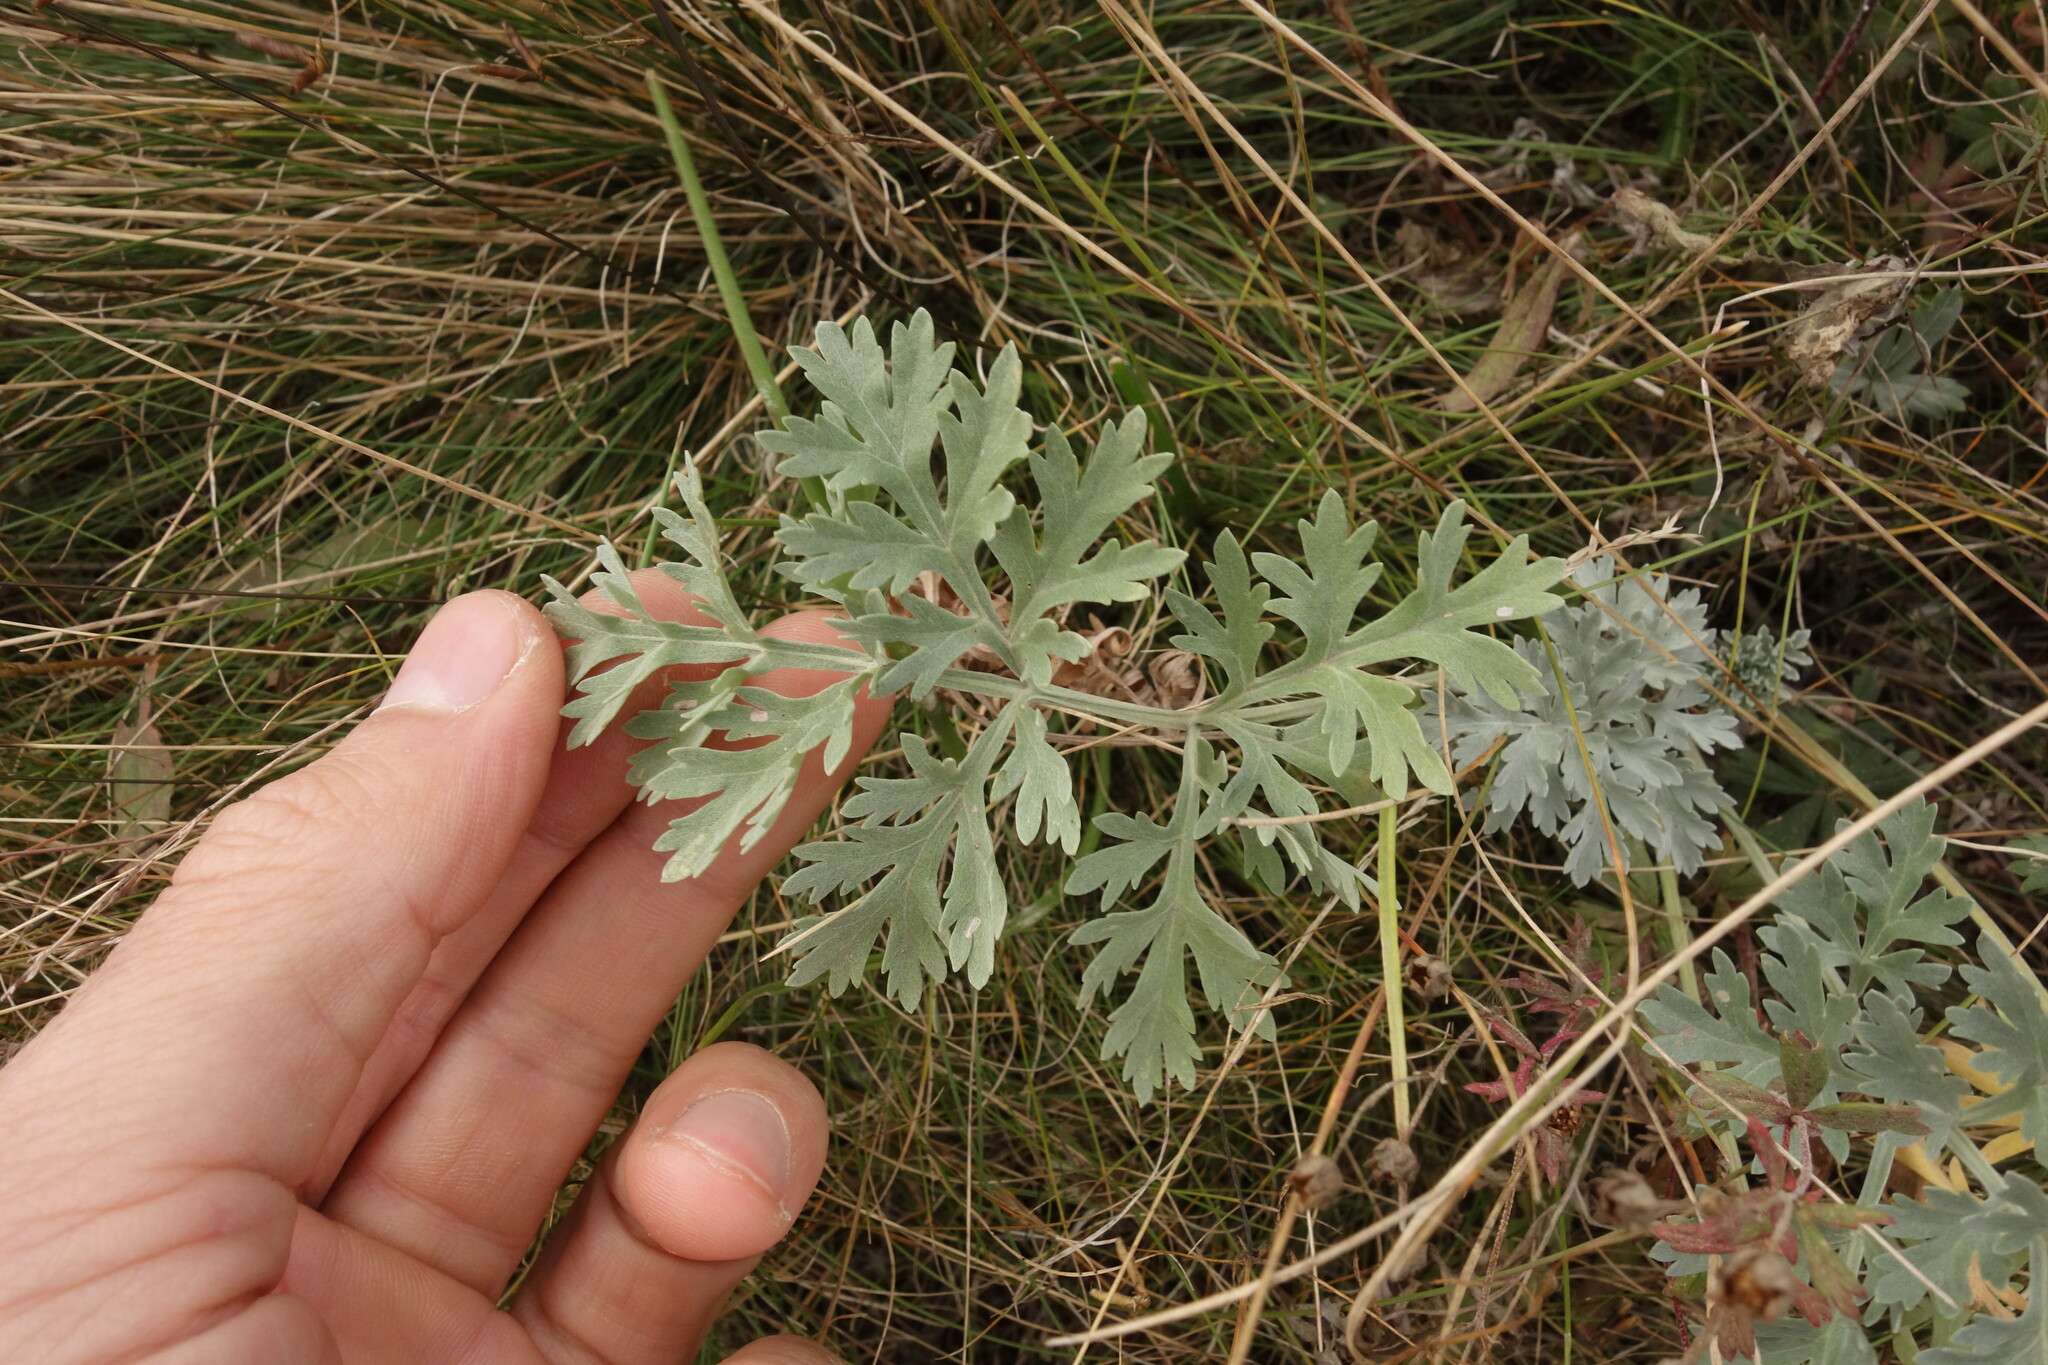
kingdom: Plantae
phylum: Tracheophyta
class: Magnoliopsida
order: Asterales
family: Asteraceae
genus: Artemisia
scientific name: Artemisia absinthium
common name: Wormwood
